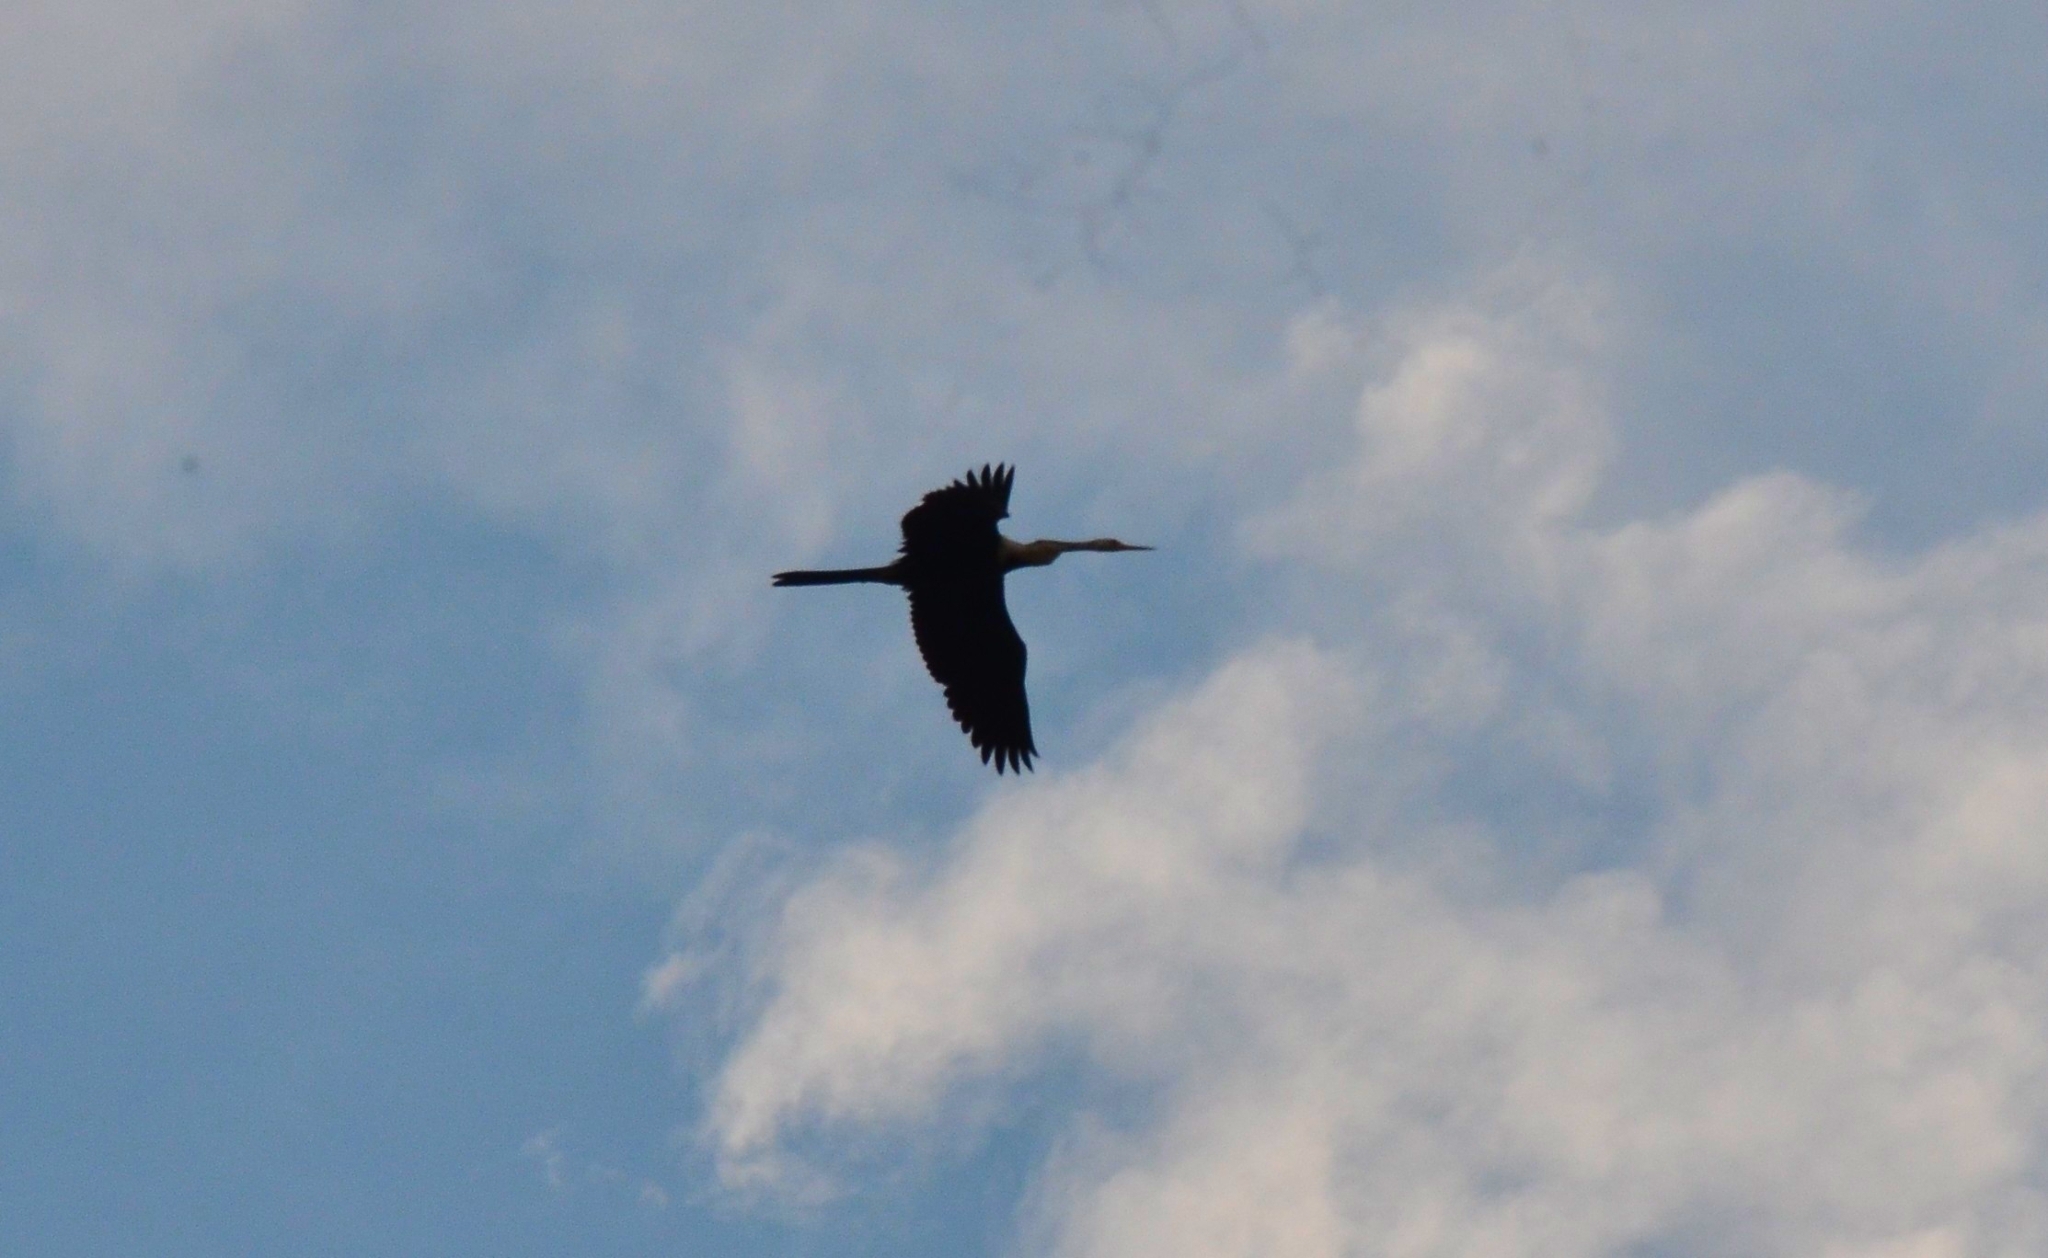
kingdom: Animalia
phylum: Chordata
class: Aves
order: Suliformes
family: Anhingidae
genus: Anhinga
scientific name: Anhinga melanogaster
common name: Oriental darter
